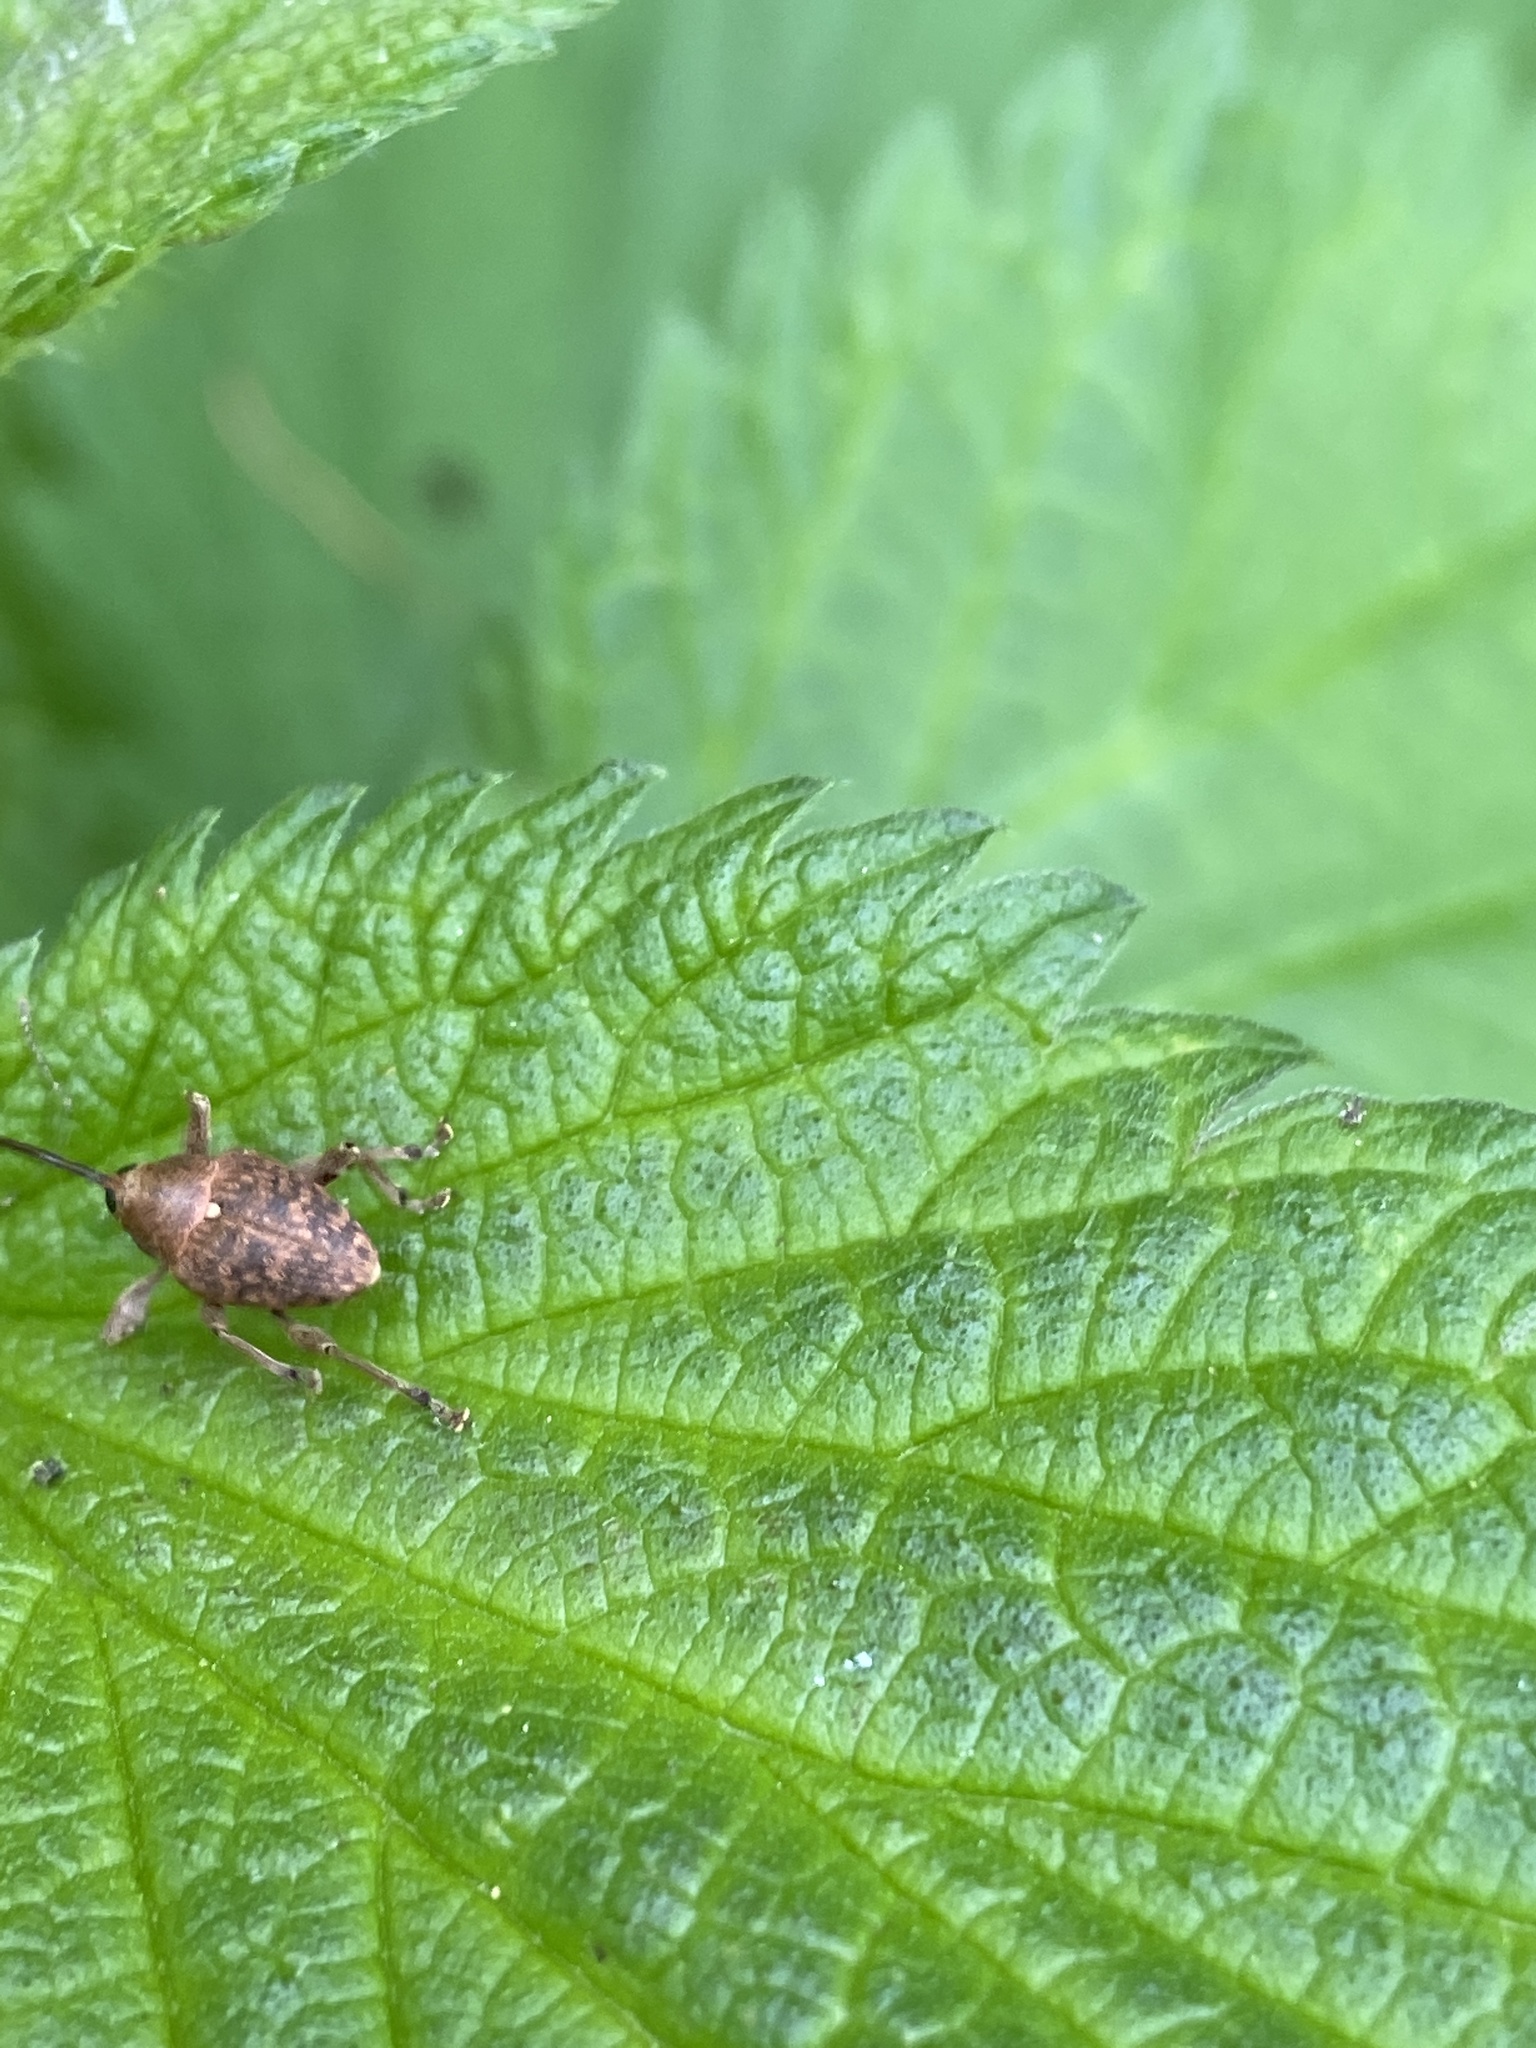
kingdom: Animalia
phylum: Arthropoda
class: Insecta
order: Coleoptera
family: Curculionidae
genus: Curculio
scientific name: Curculio glandium
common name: Acorn weevil
